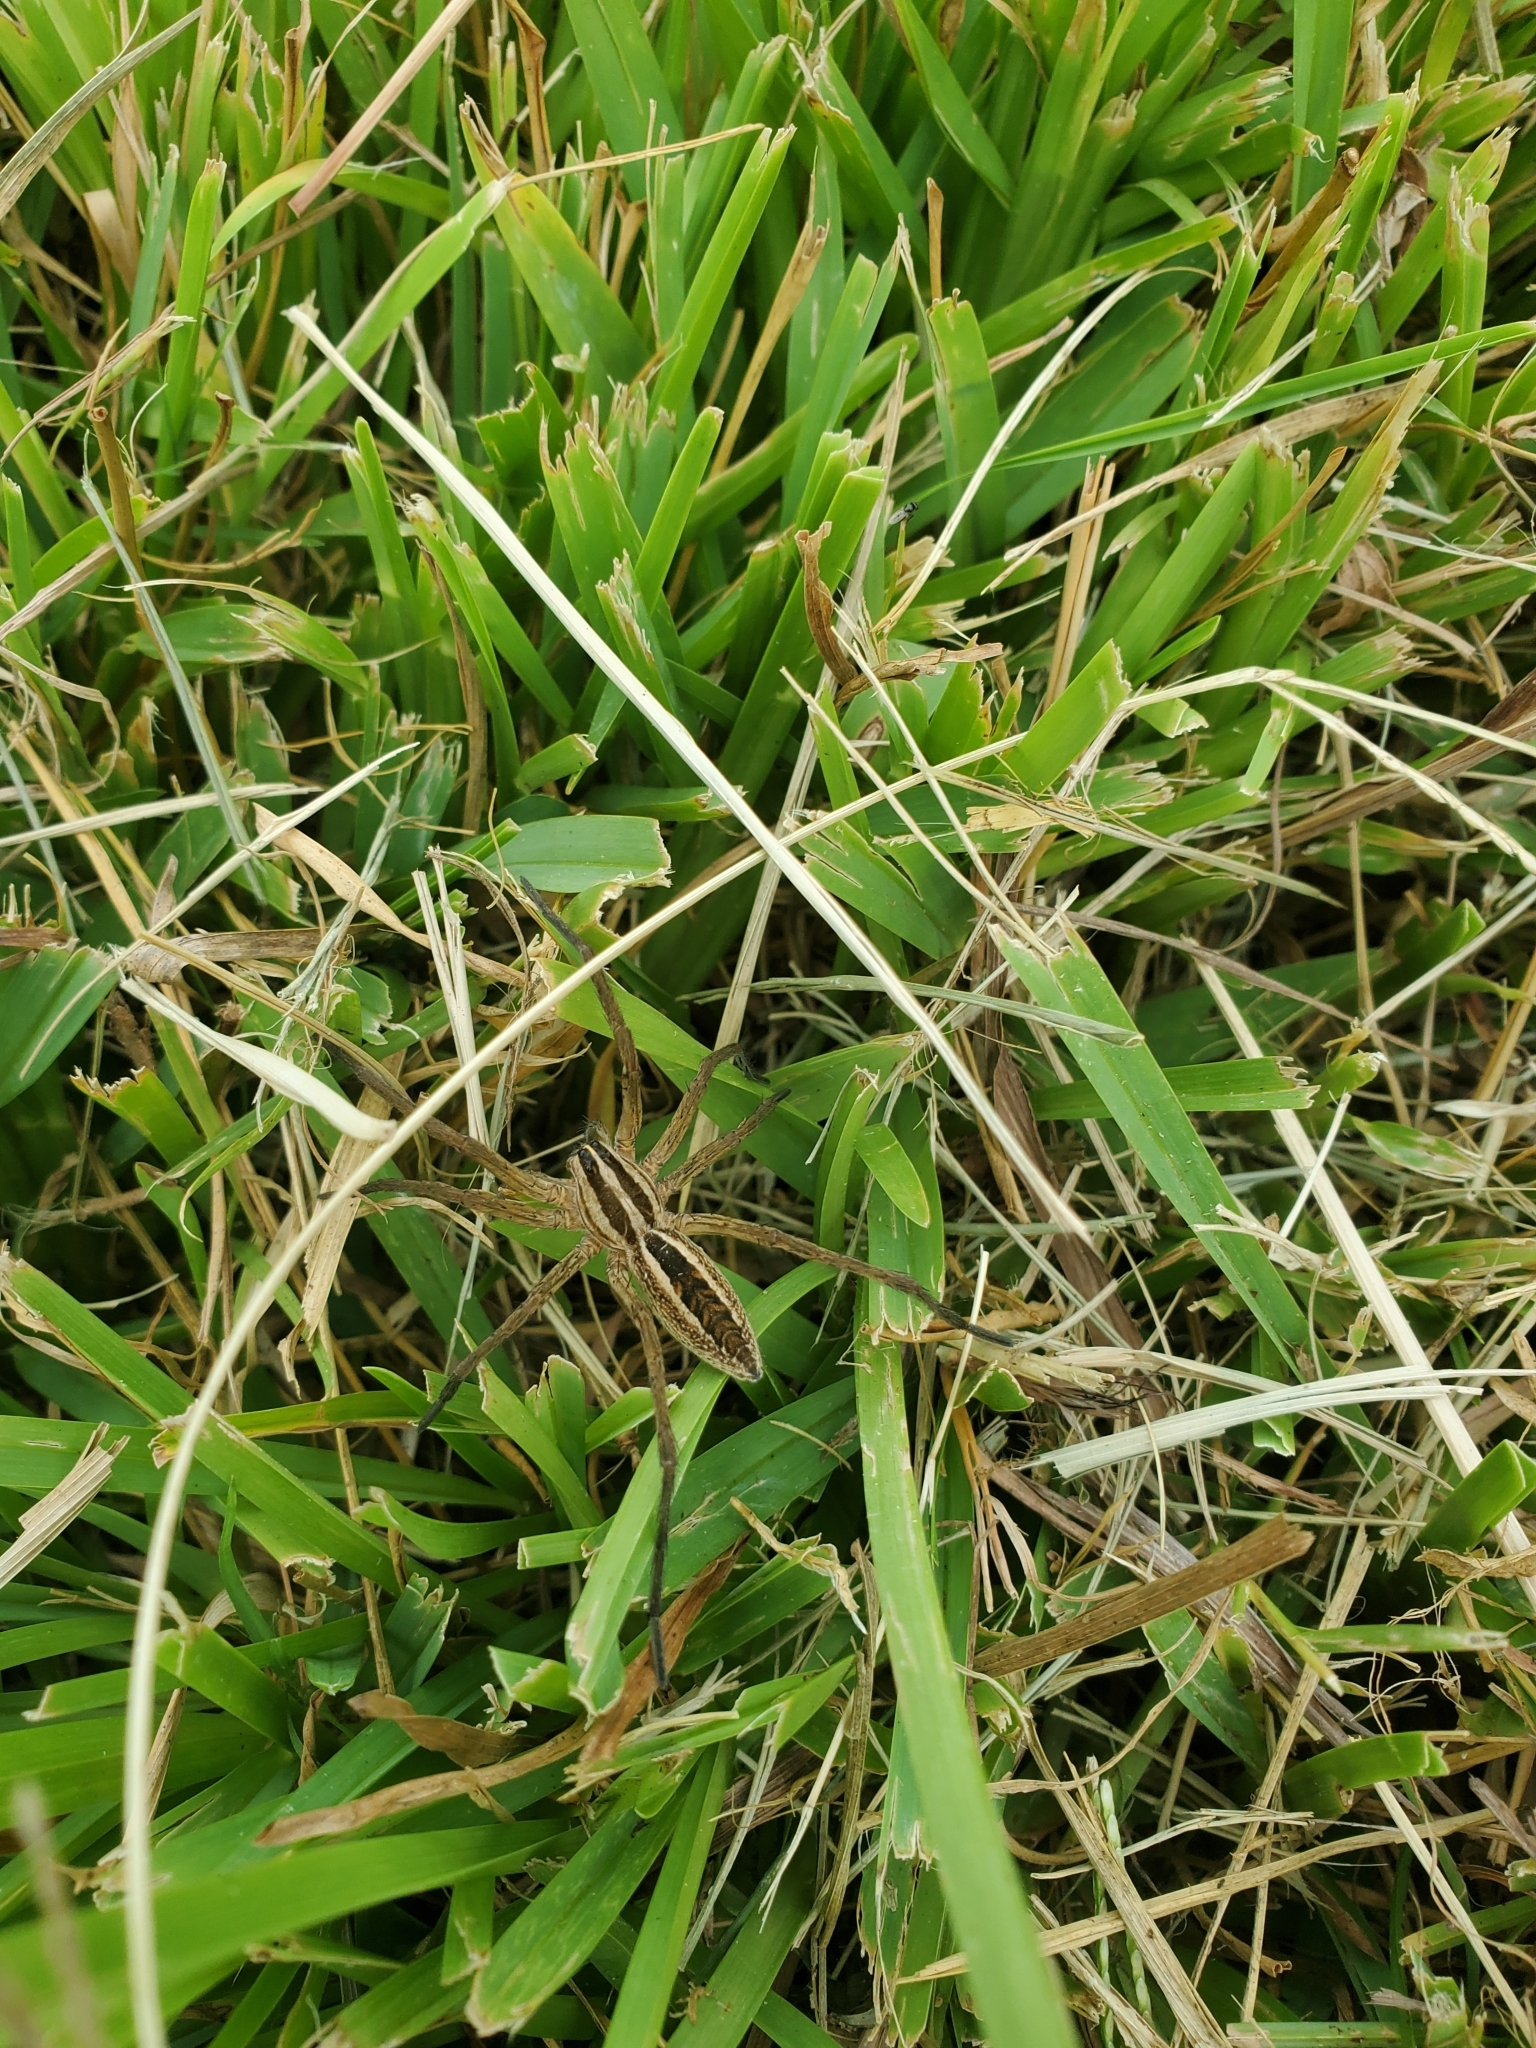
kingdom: Animalia
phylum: Arthropoda
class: Arachnida
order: Araneae
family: Lycosidae
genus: Rabidosa
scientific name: Rabidosa rabida
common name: Rabid wolf spider
